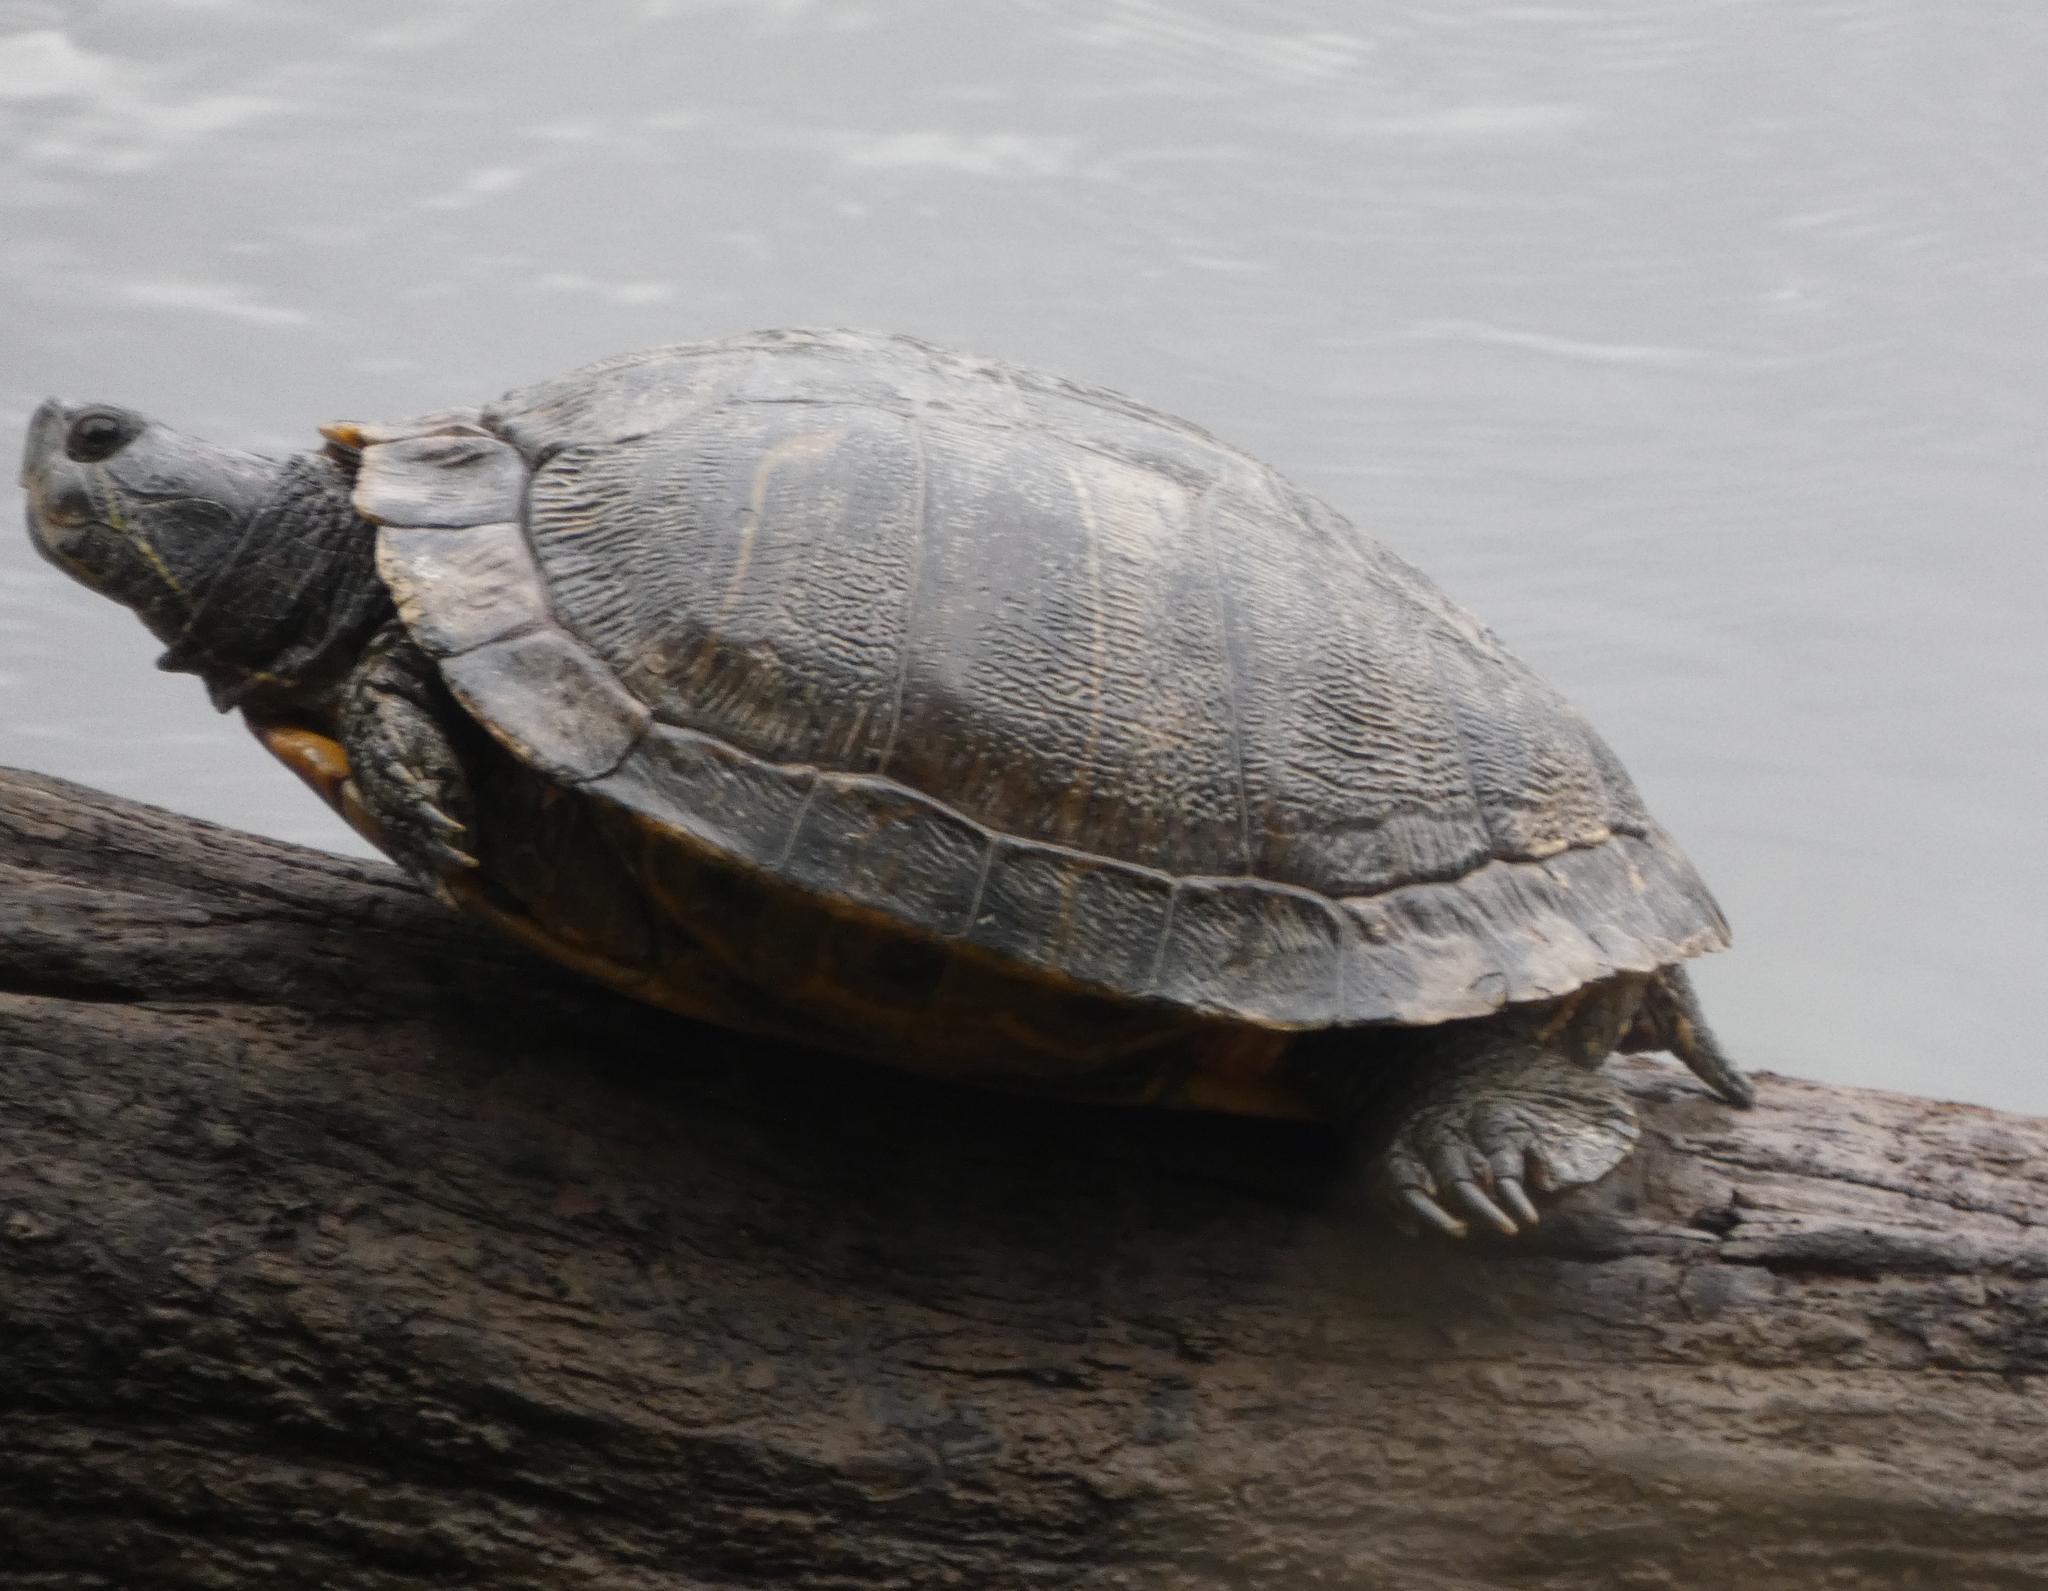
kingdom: Animalia
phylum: Chordata
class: Testudines
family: Emydidae
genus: Trachemys
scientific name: Trachemys scripta
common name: Slider
